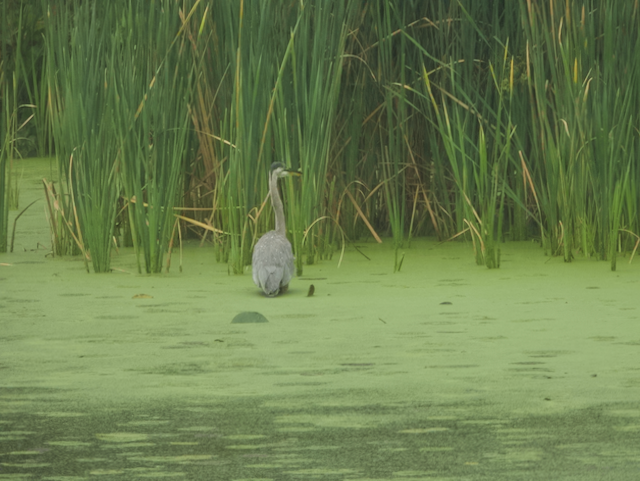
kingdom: Animalia
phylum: Chordata
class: Aves
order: Pelecaniformes
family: Ardeidae
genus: Ardea
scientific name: Ardea herodias
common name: Great blue heron
